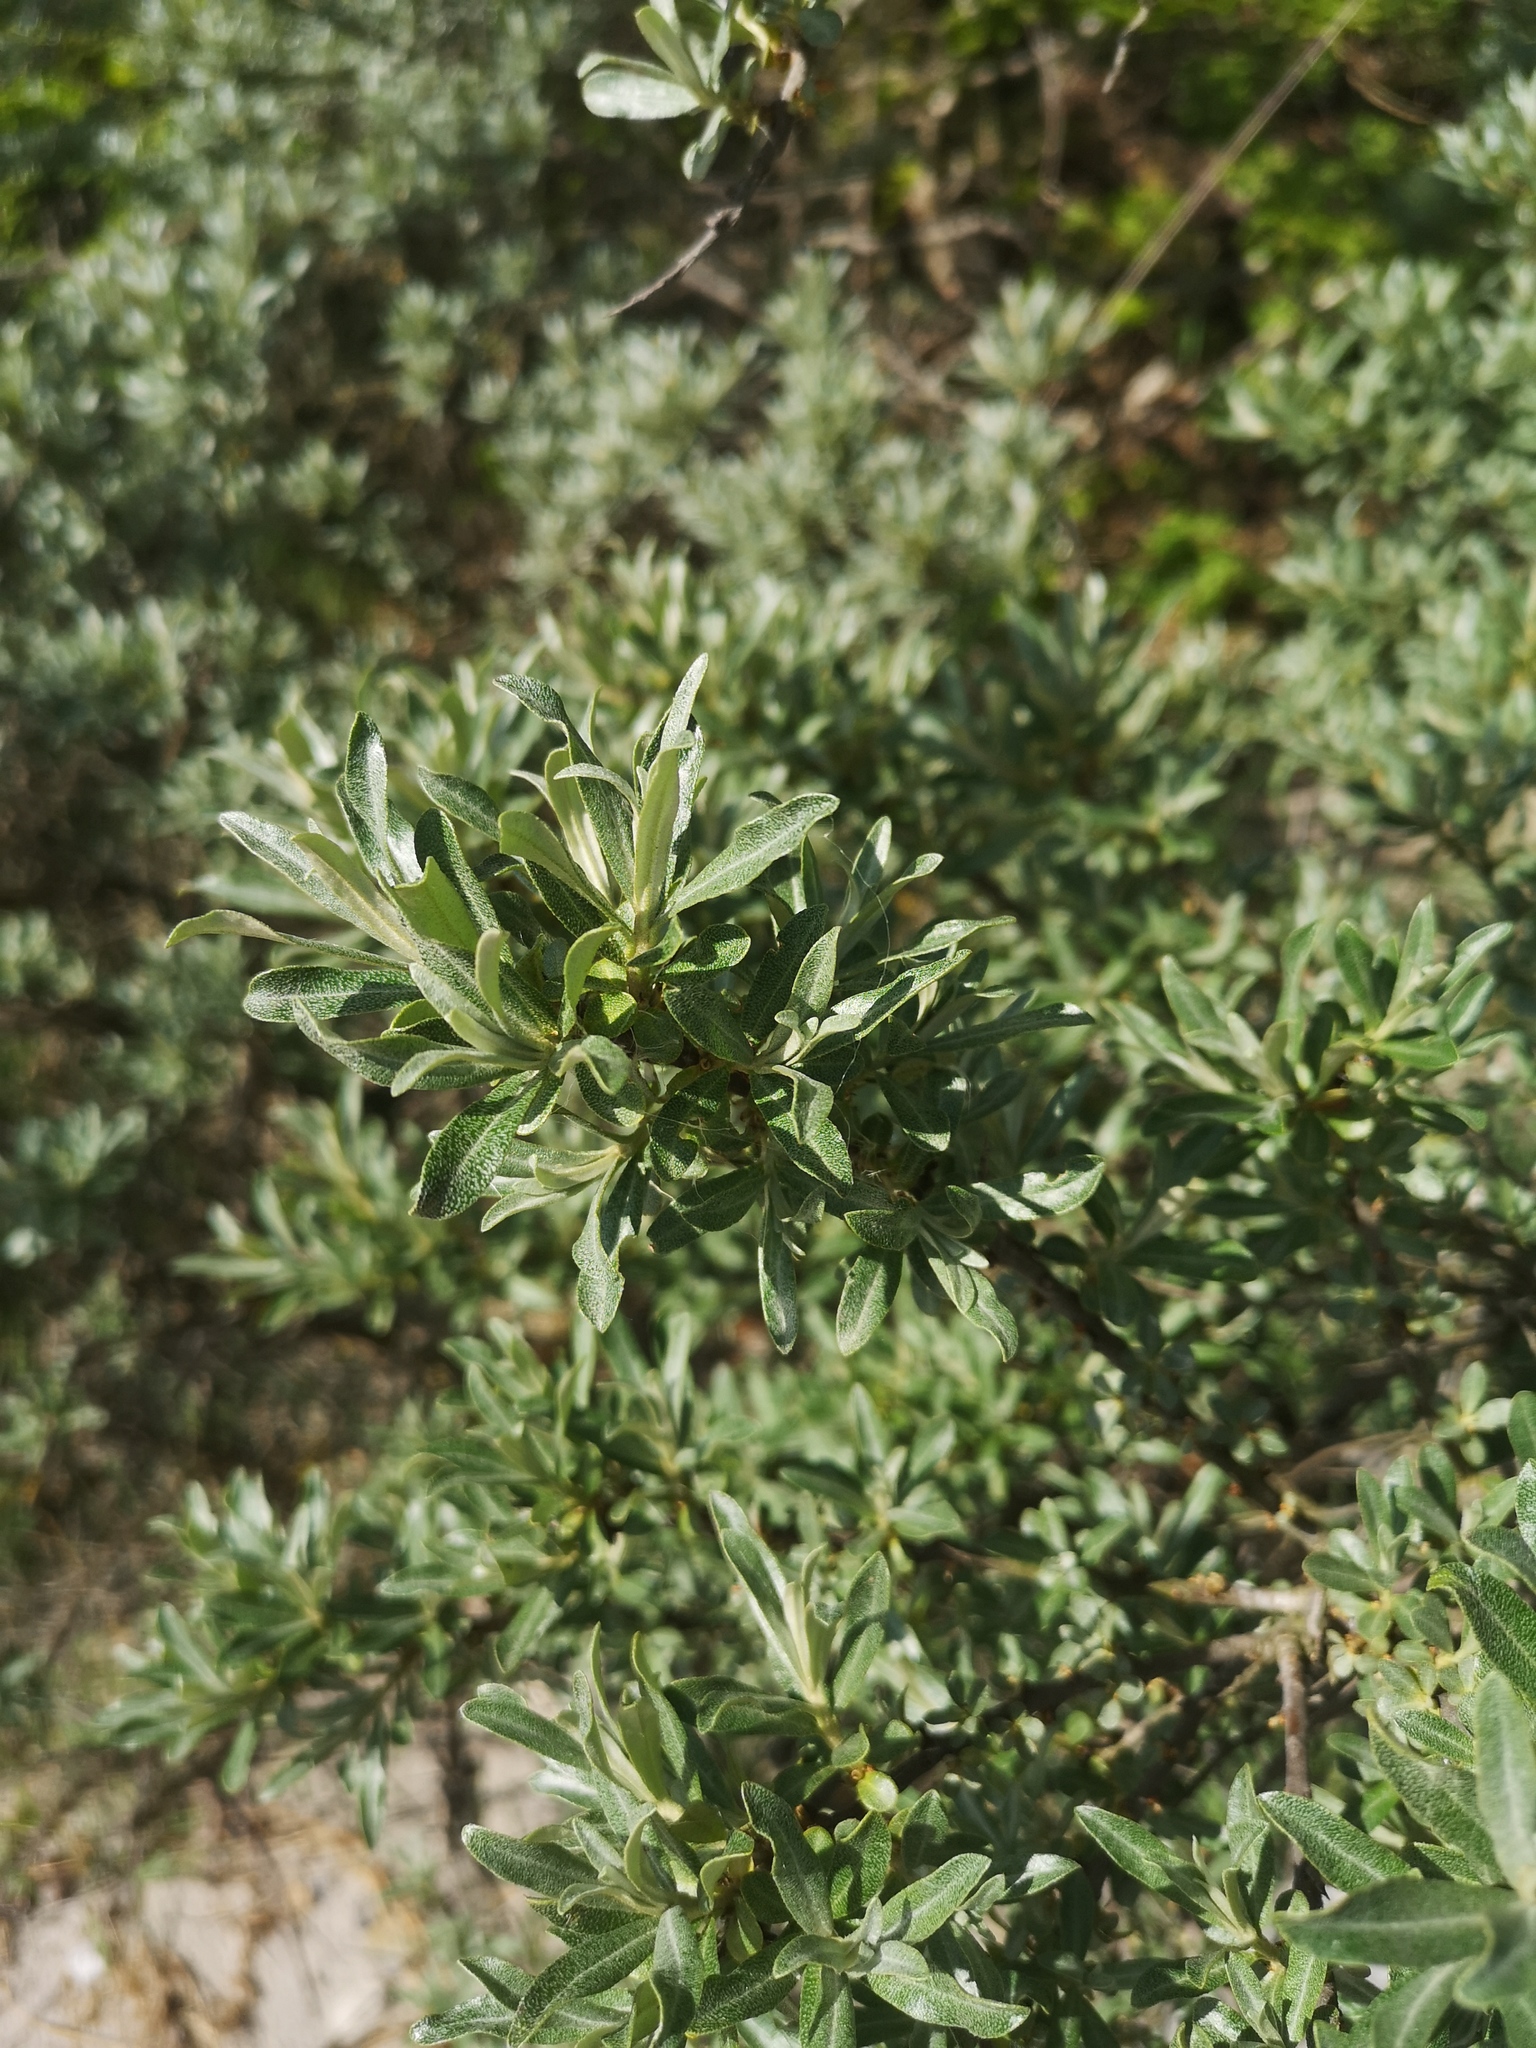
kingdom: Plantae
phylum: Tracheophyta
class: Magnoliopsida
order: Rosales
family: Elaeagnaceae
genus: Hippophae
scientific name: Hippophae rhamnoides
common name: Sea-buckthorn
